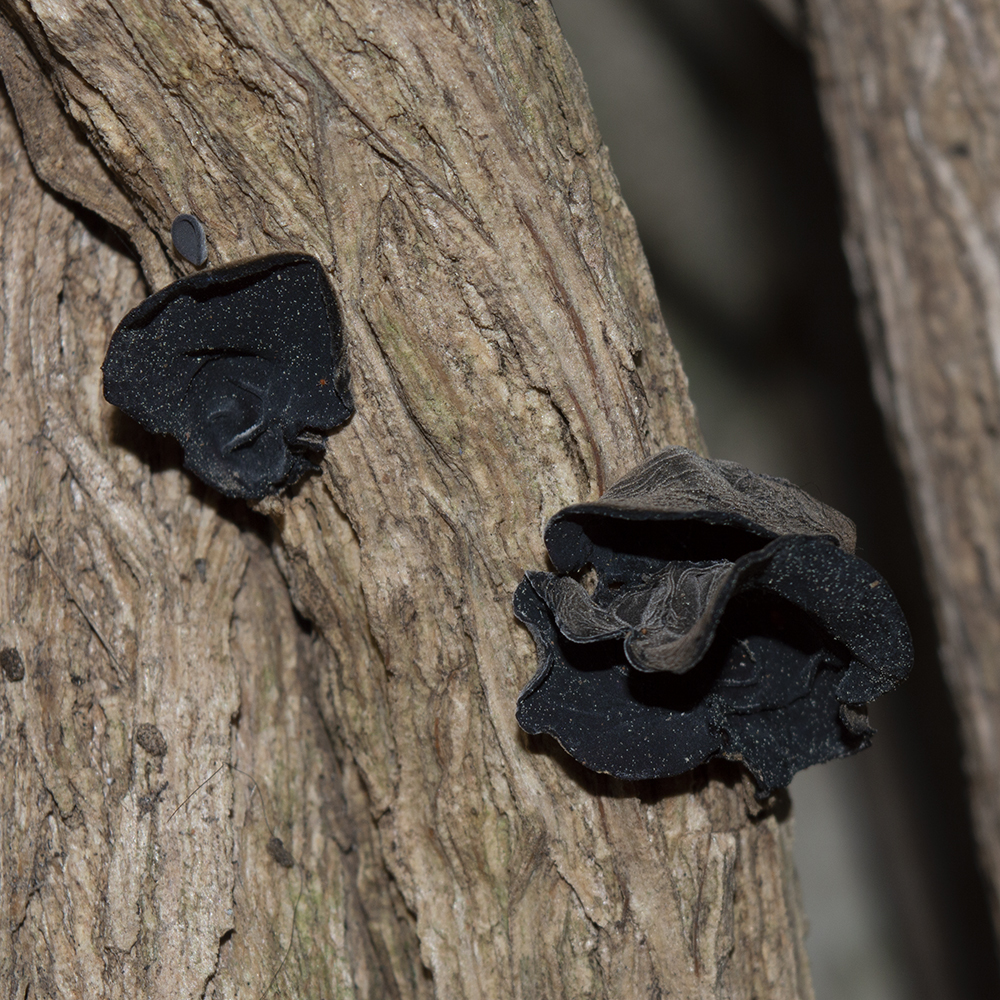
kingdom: Fungi
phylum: Basidiomycota
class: Agaricomycetes
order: Auriculariales
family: Auriculariaceae
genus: Auricularia
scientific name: Auricularia auricula-judae
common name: Jelly ear
